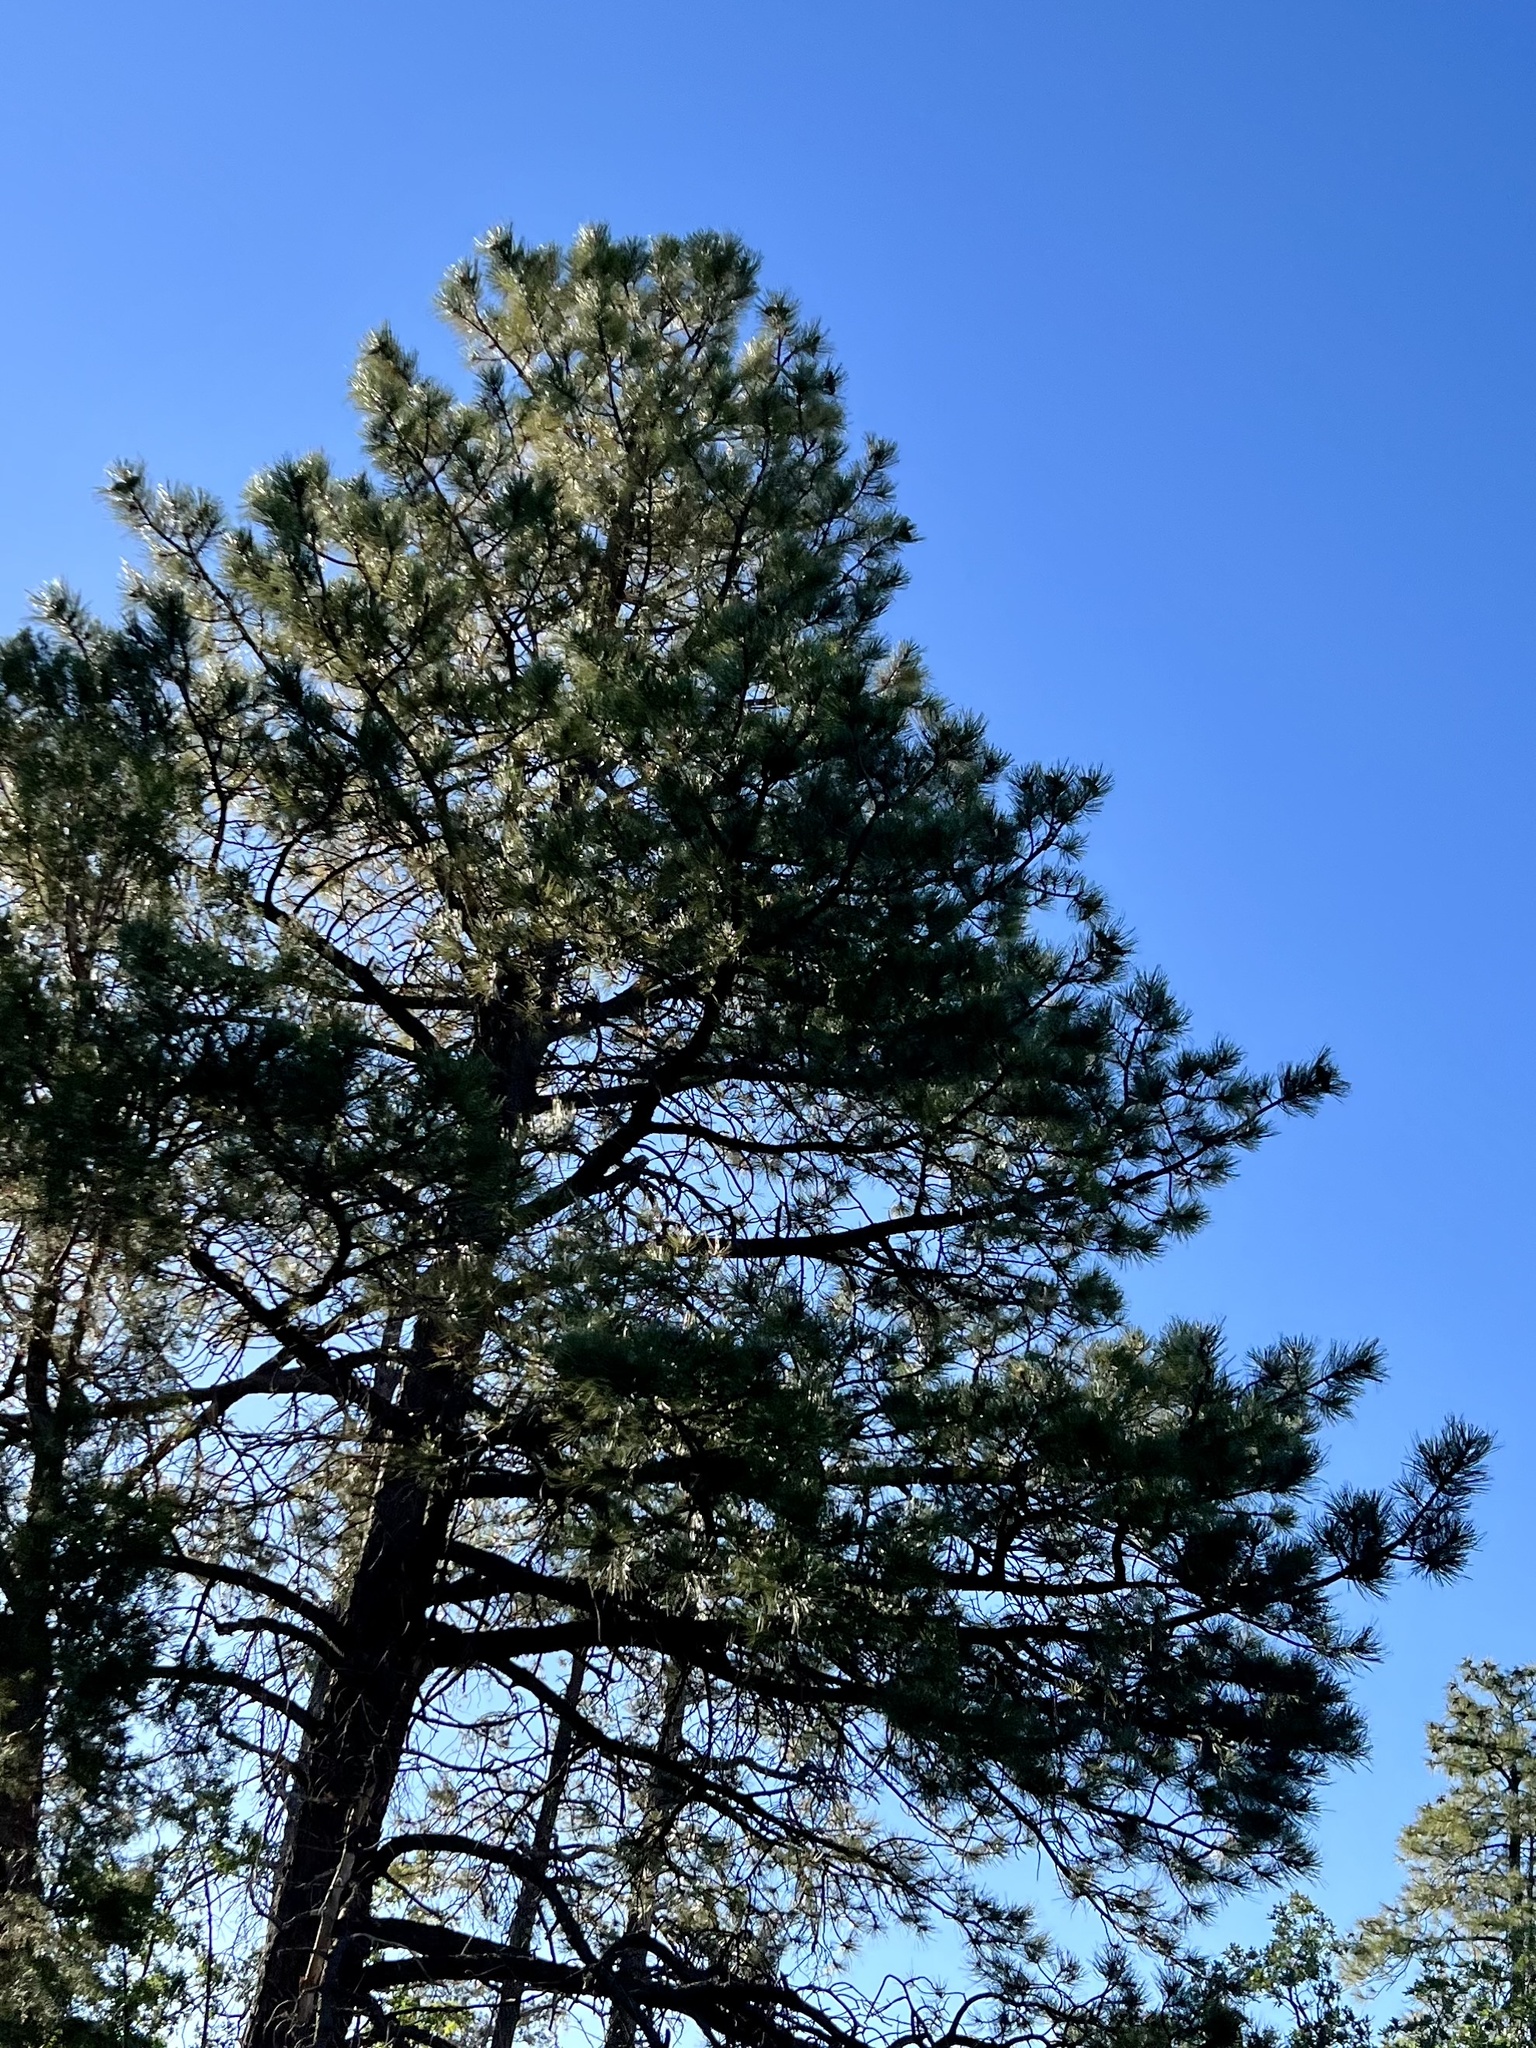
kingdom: Plantae
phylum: Tracheophyta
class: Pinopsida
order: Pinales
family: Pinaceae
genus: Pinus
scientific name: Pinus ponderosa
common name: Western yellow-pine
